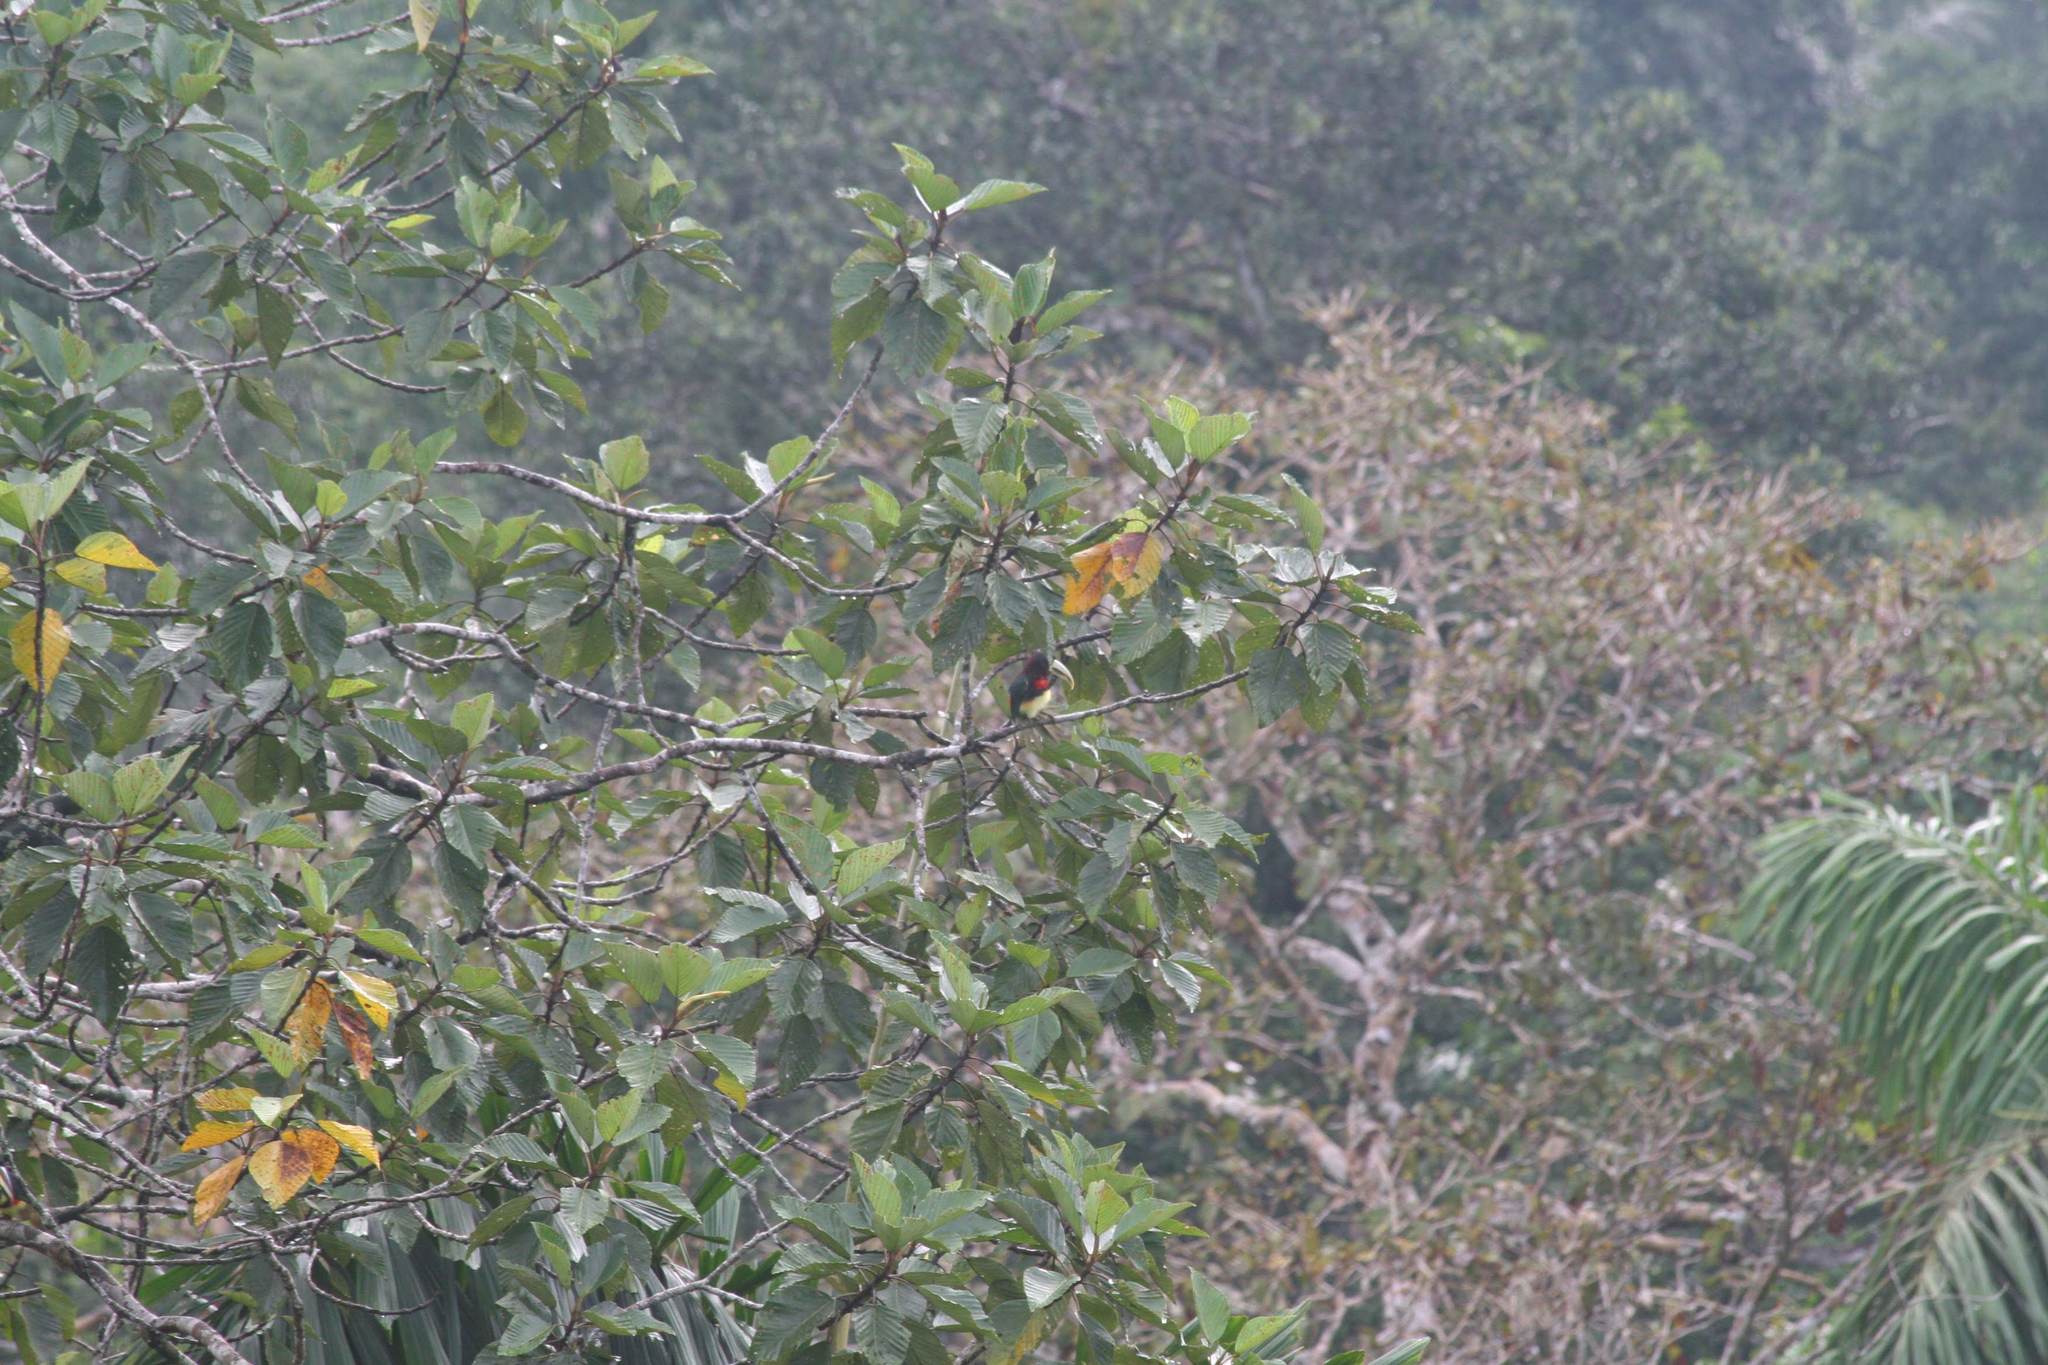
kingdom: Animalia
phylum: Chordata
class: Aves
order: Piciformes
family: Ramphastidae
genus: Pteroglossus
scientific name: Pteroglossus azara
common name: Ivory-billed aracari
